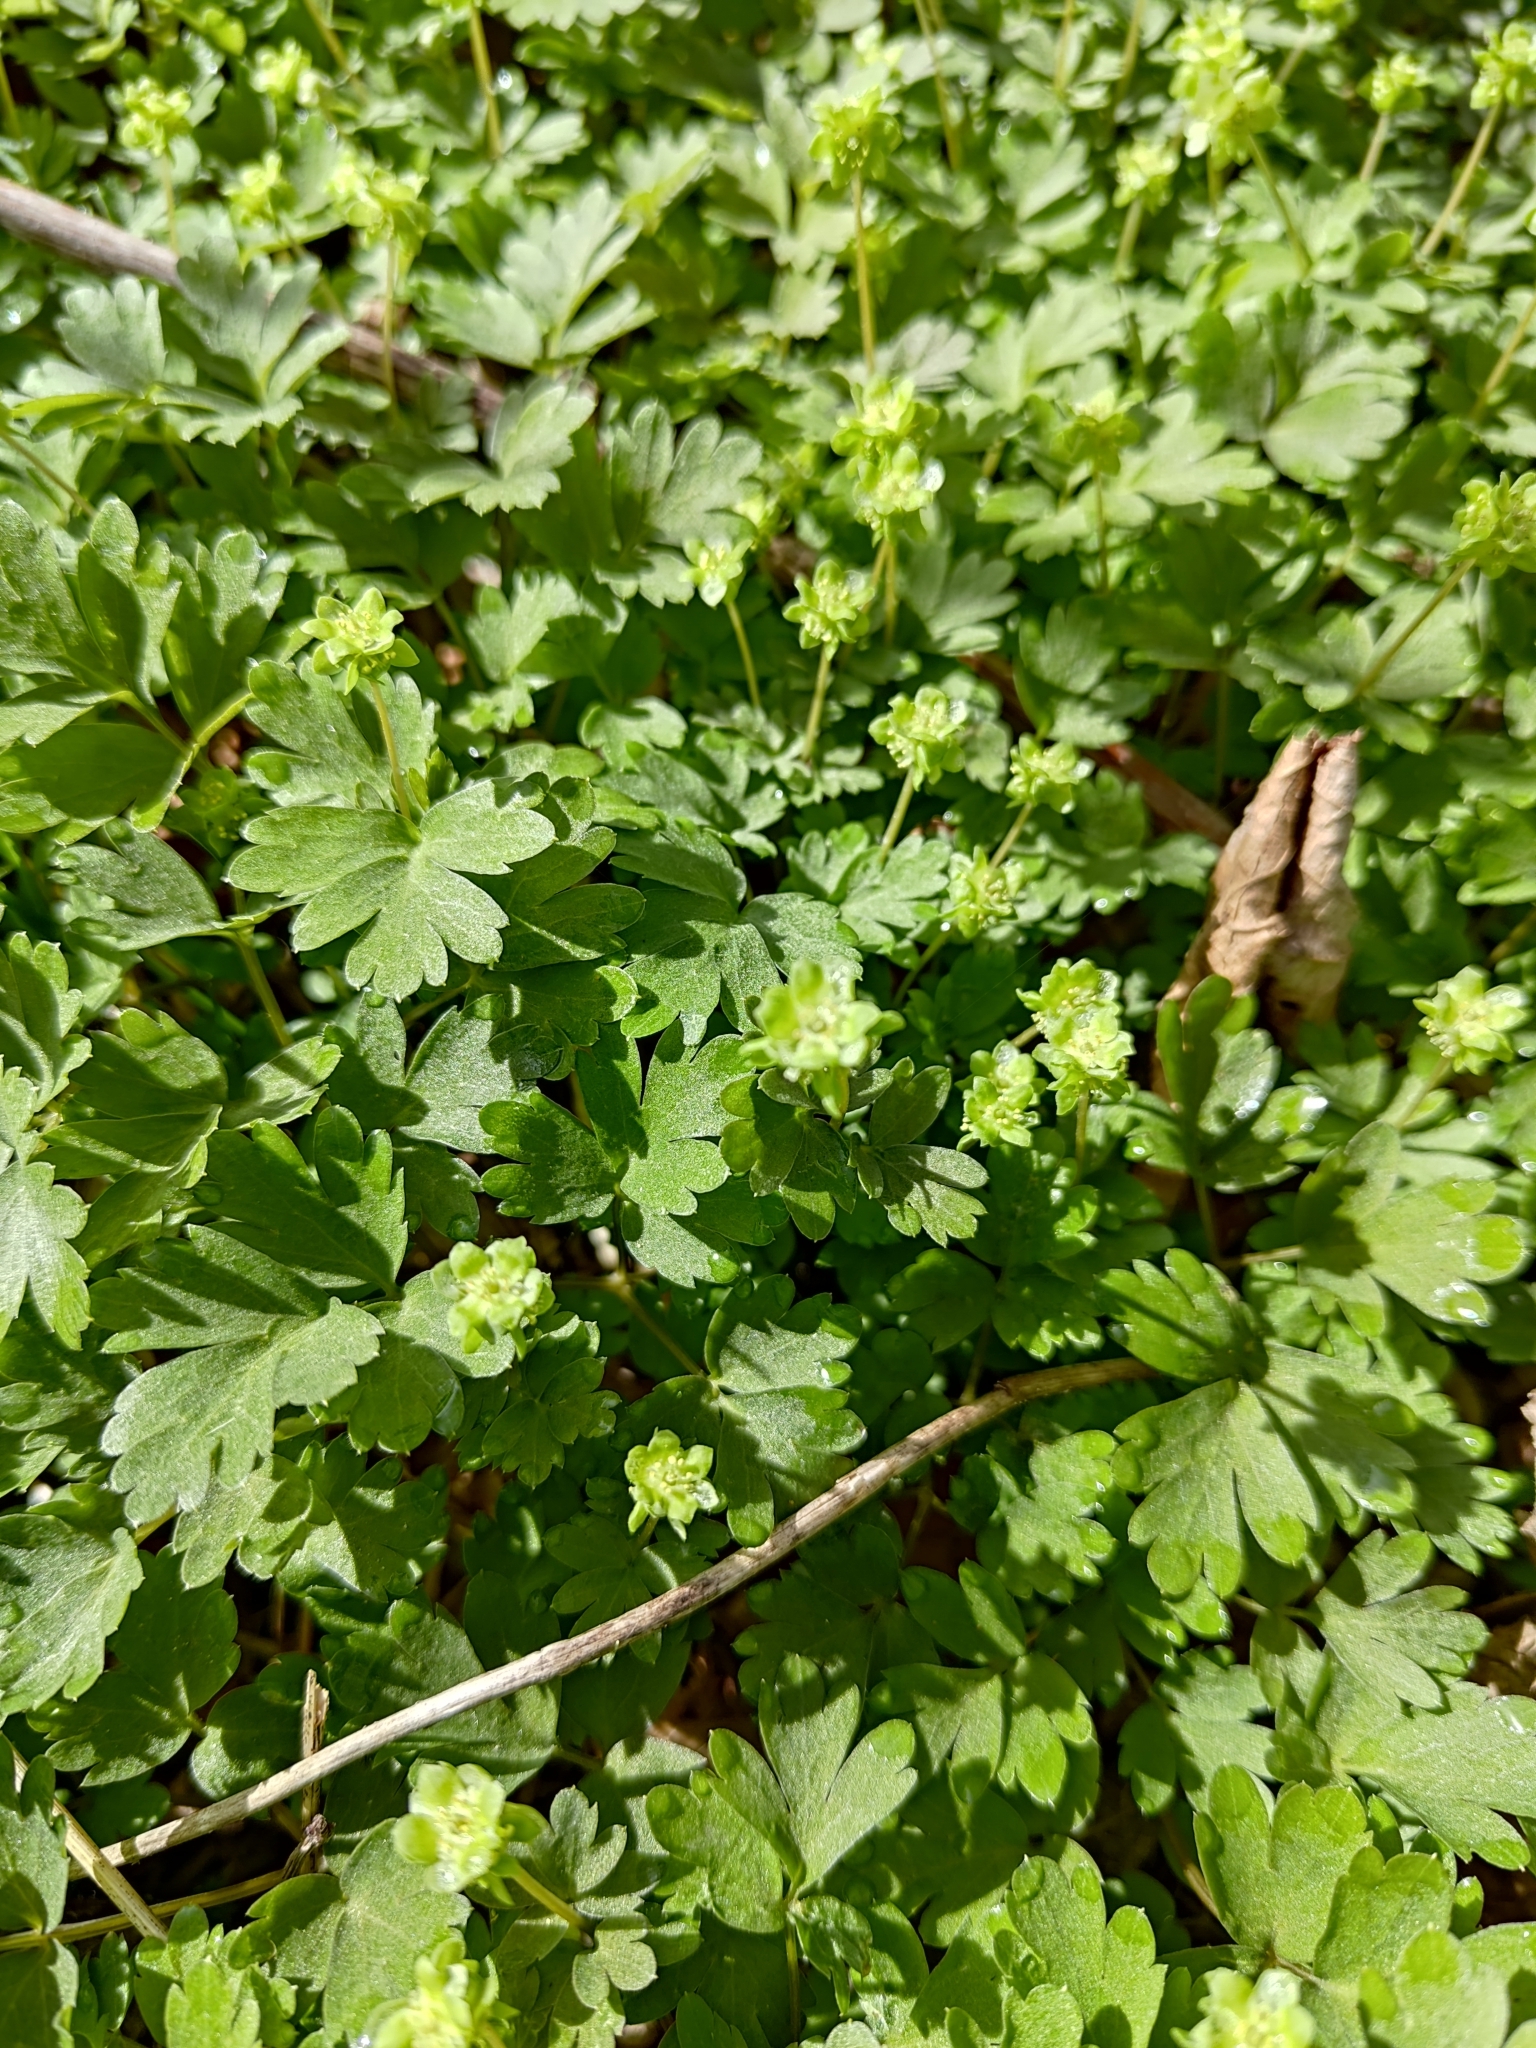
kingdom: Plantae
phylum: Tracheophyta
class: Magnoliopsida
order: Dipsacales
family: Viburnaceae
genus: Adoxa
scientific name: Adoxa moschatellina
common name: Moschatel
